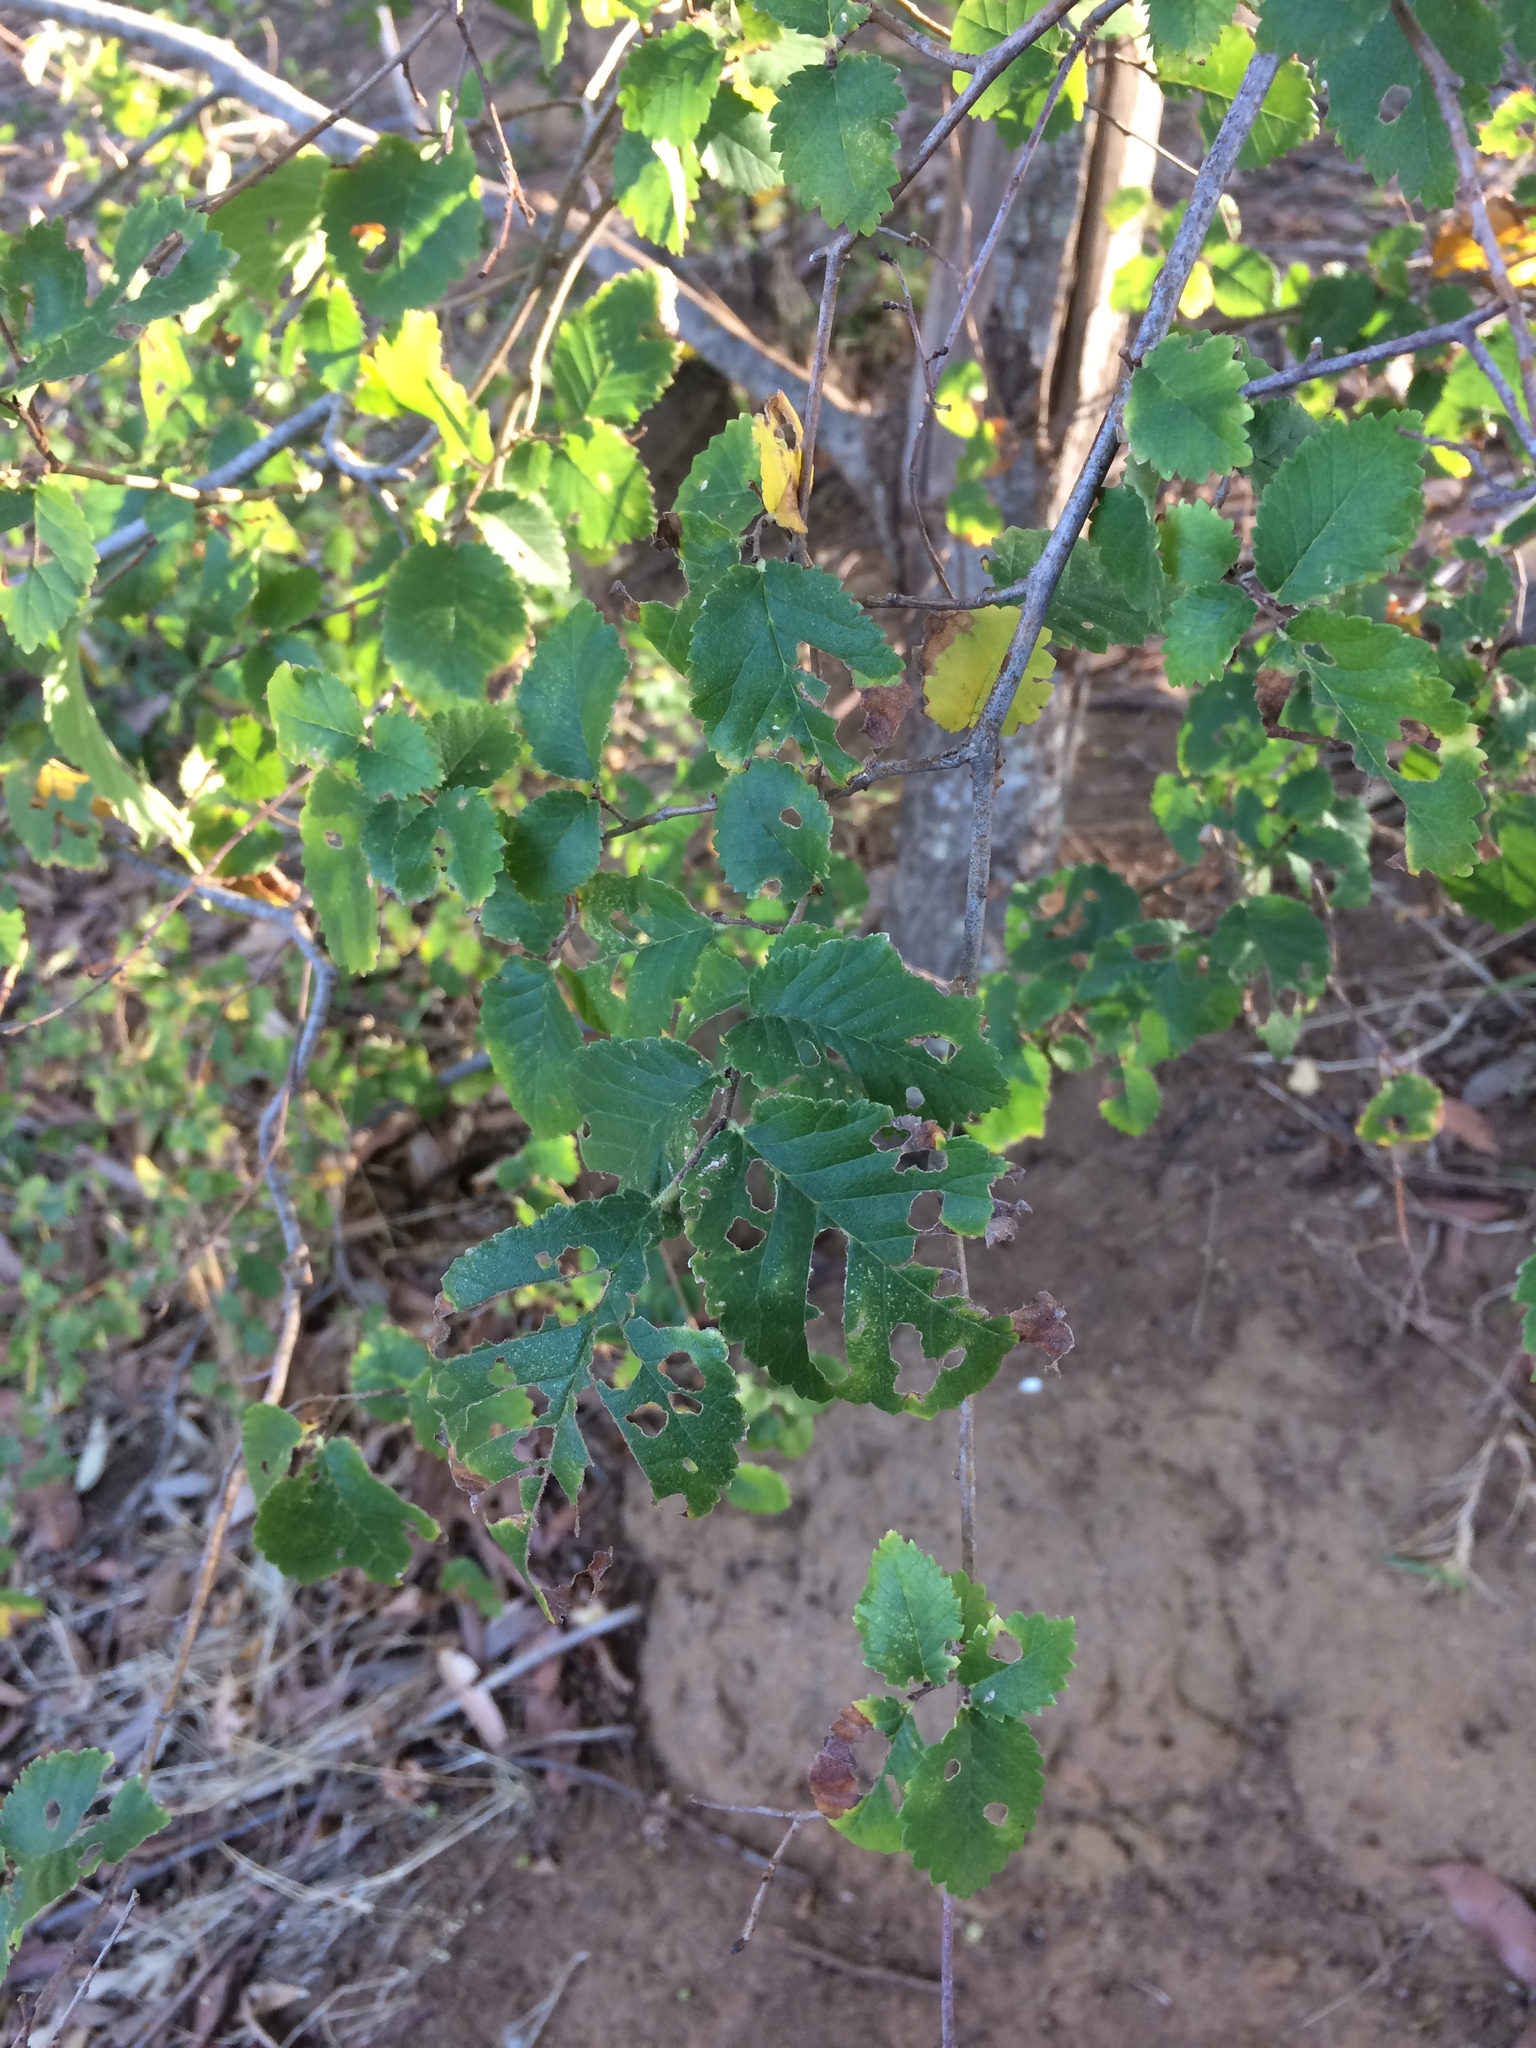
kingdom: Plantae
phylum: Tracheophyta
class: Magnoliopsida
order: Rosales
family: Ulmaceae
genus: Ulmus
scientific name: Ulmus minor
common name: Small-leaved elm
